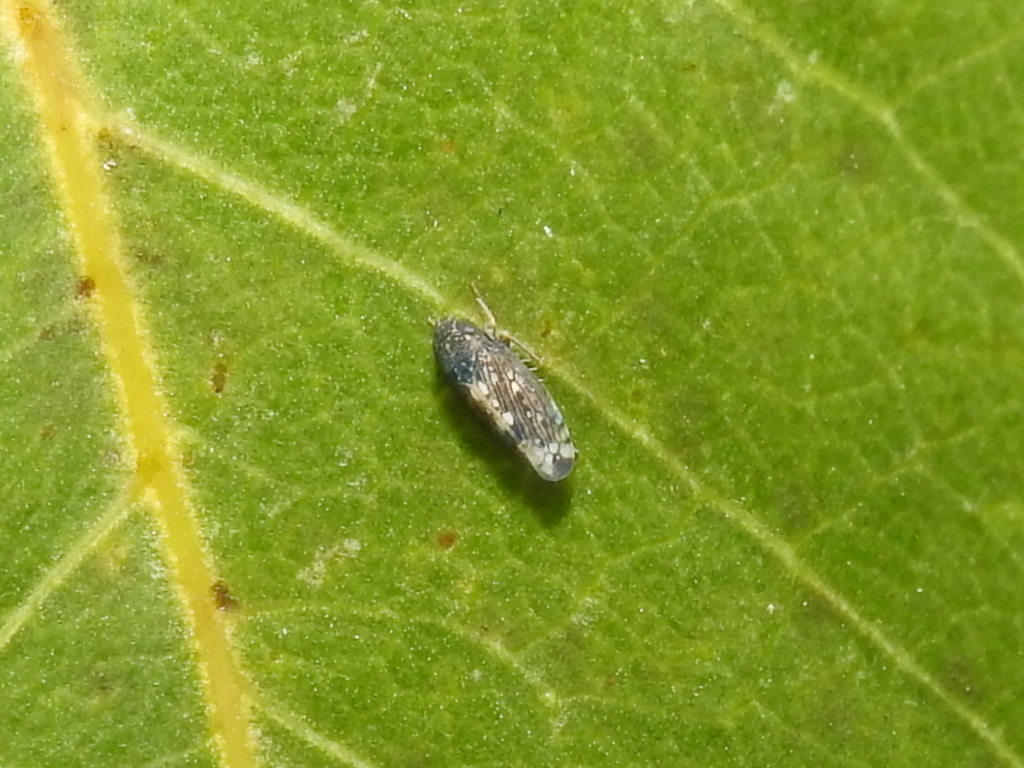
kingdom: Animalia
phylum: Arthropoda
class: Insecta
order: Hemiptera
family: Cicadellidae
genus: Neoaliturus
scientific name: Neoaliturus
